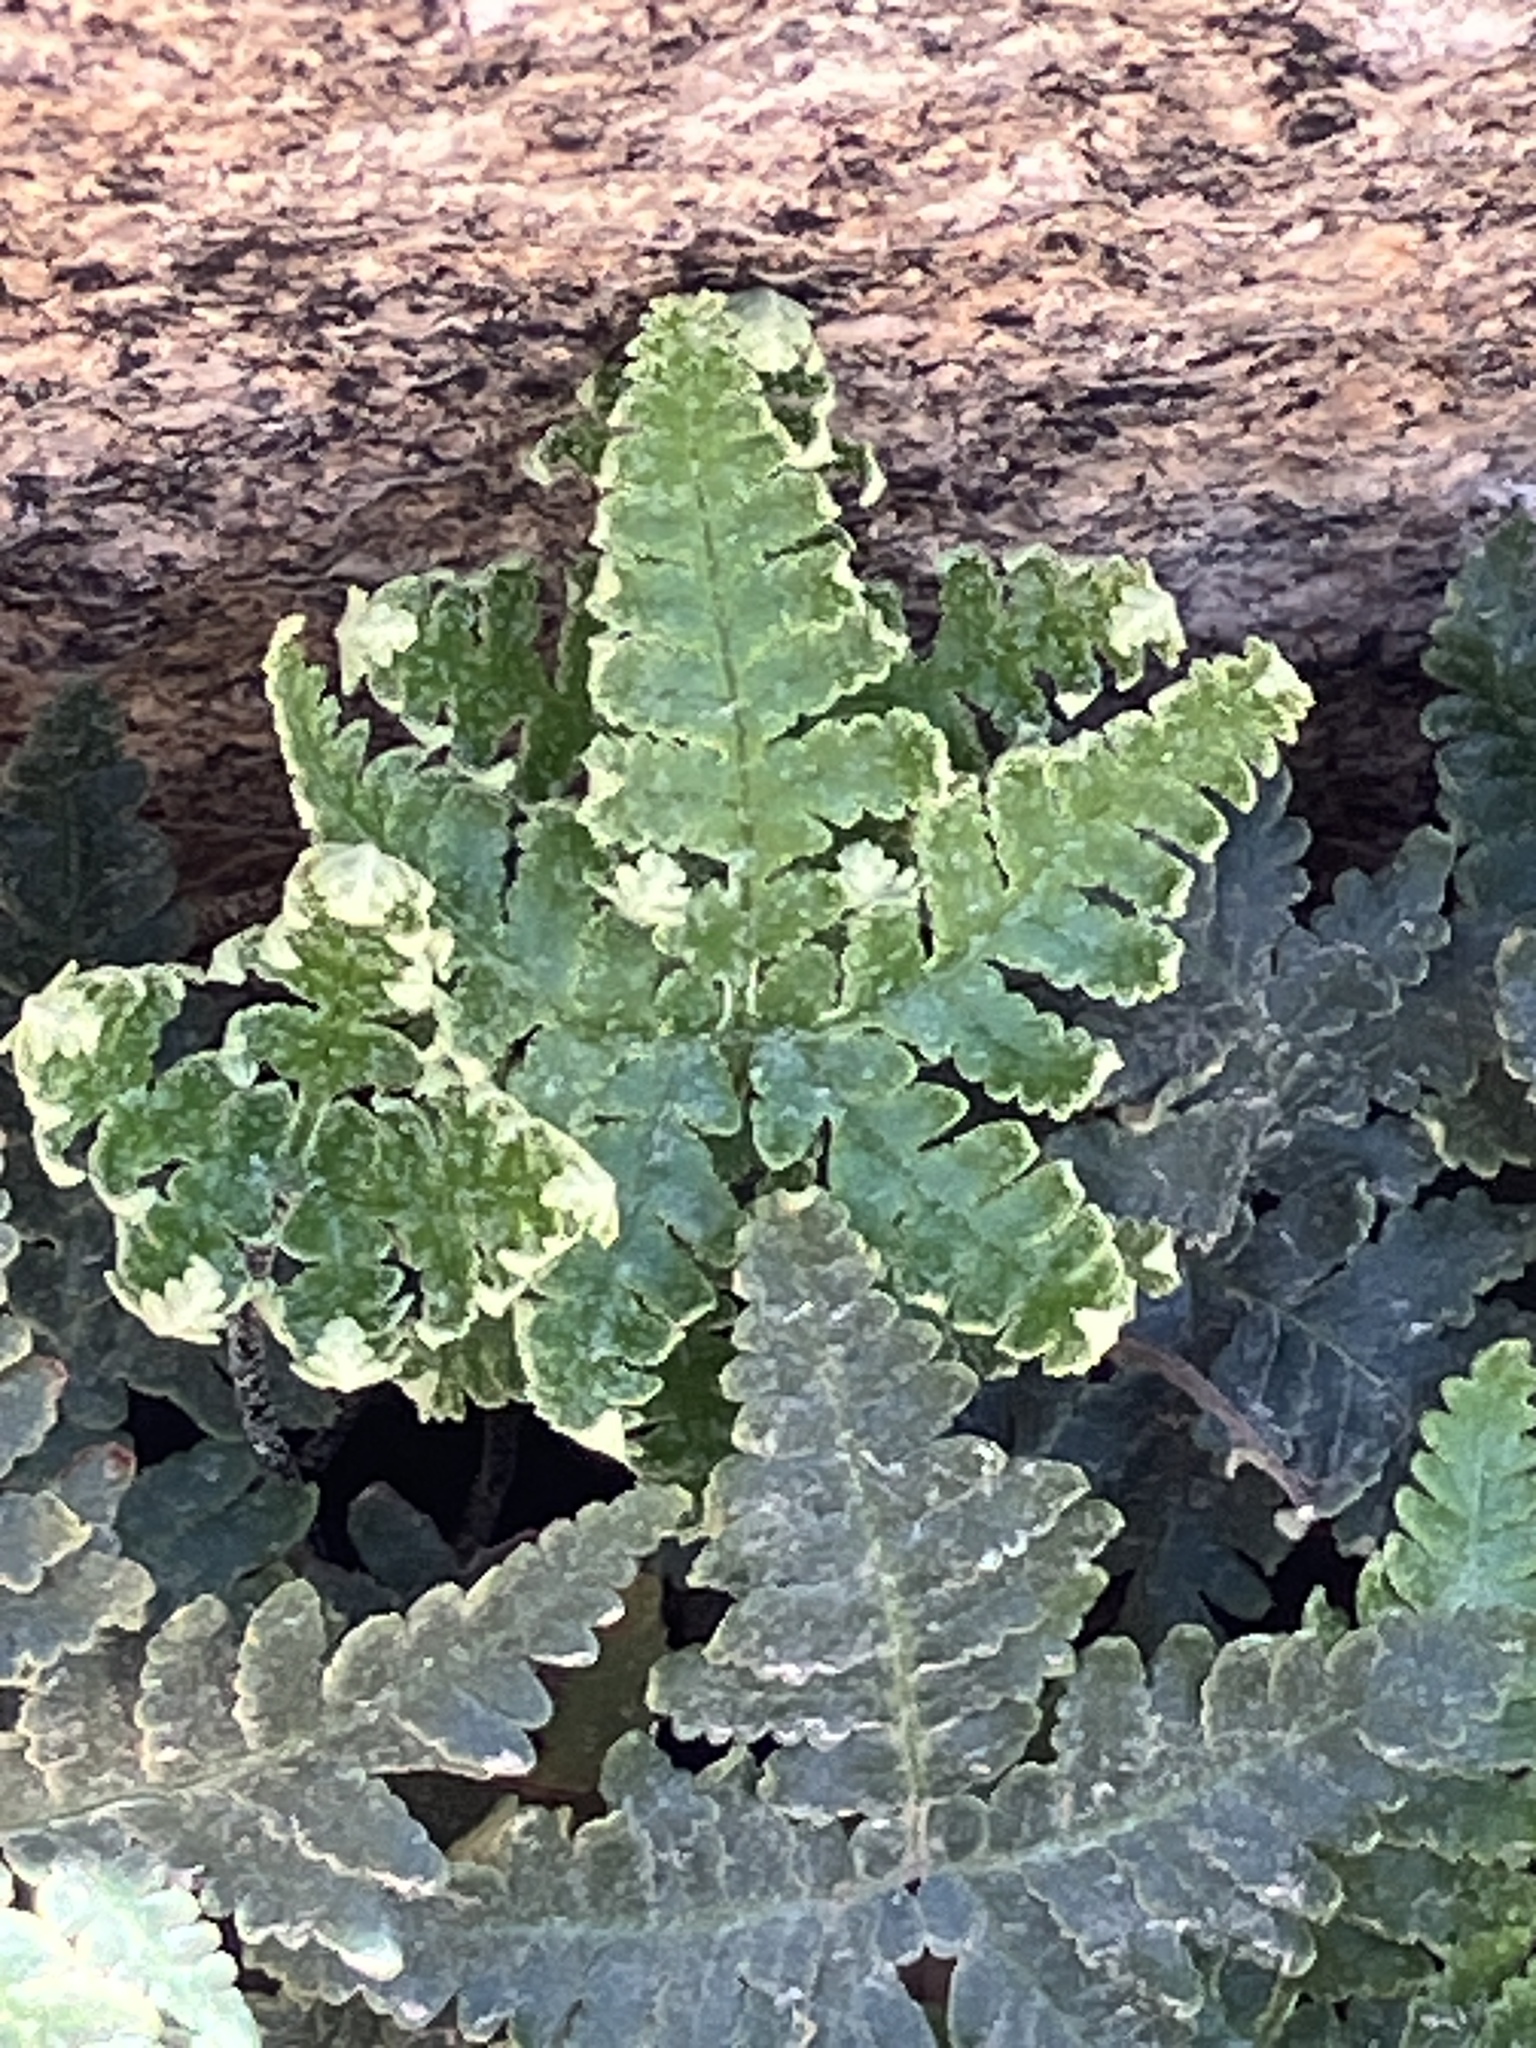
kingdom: Plantae
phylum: Tracheophyta
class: Polypodiopsida
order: Polypodiales
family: Pteridaceae
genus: Notholaena
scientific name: Notholaena standleyi
